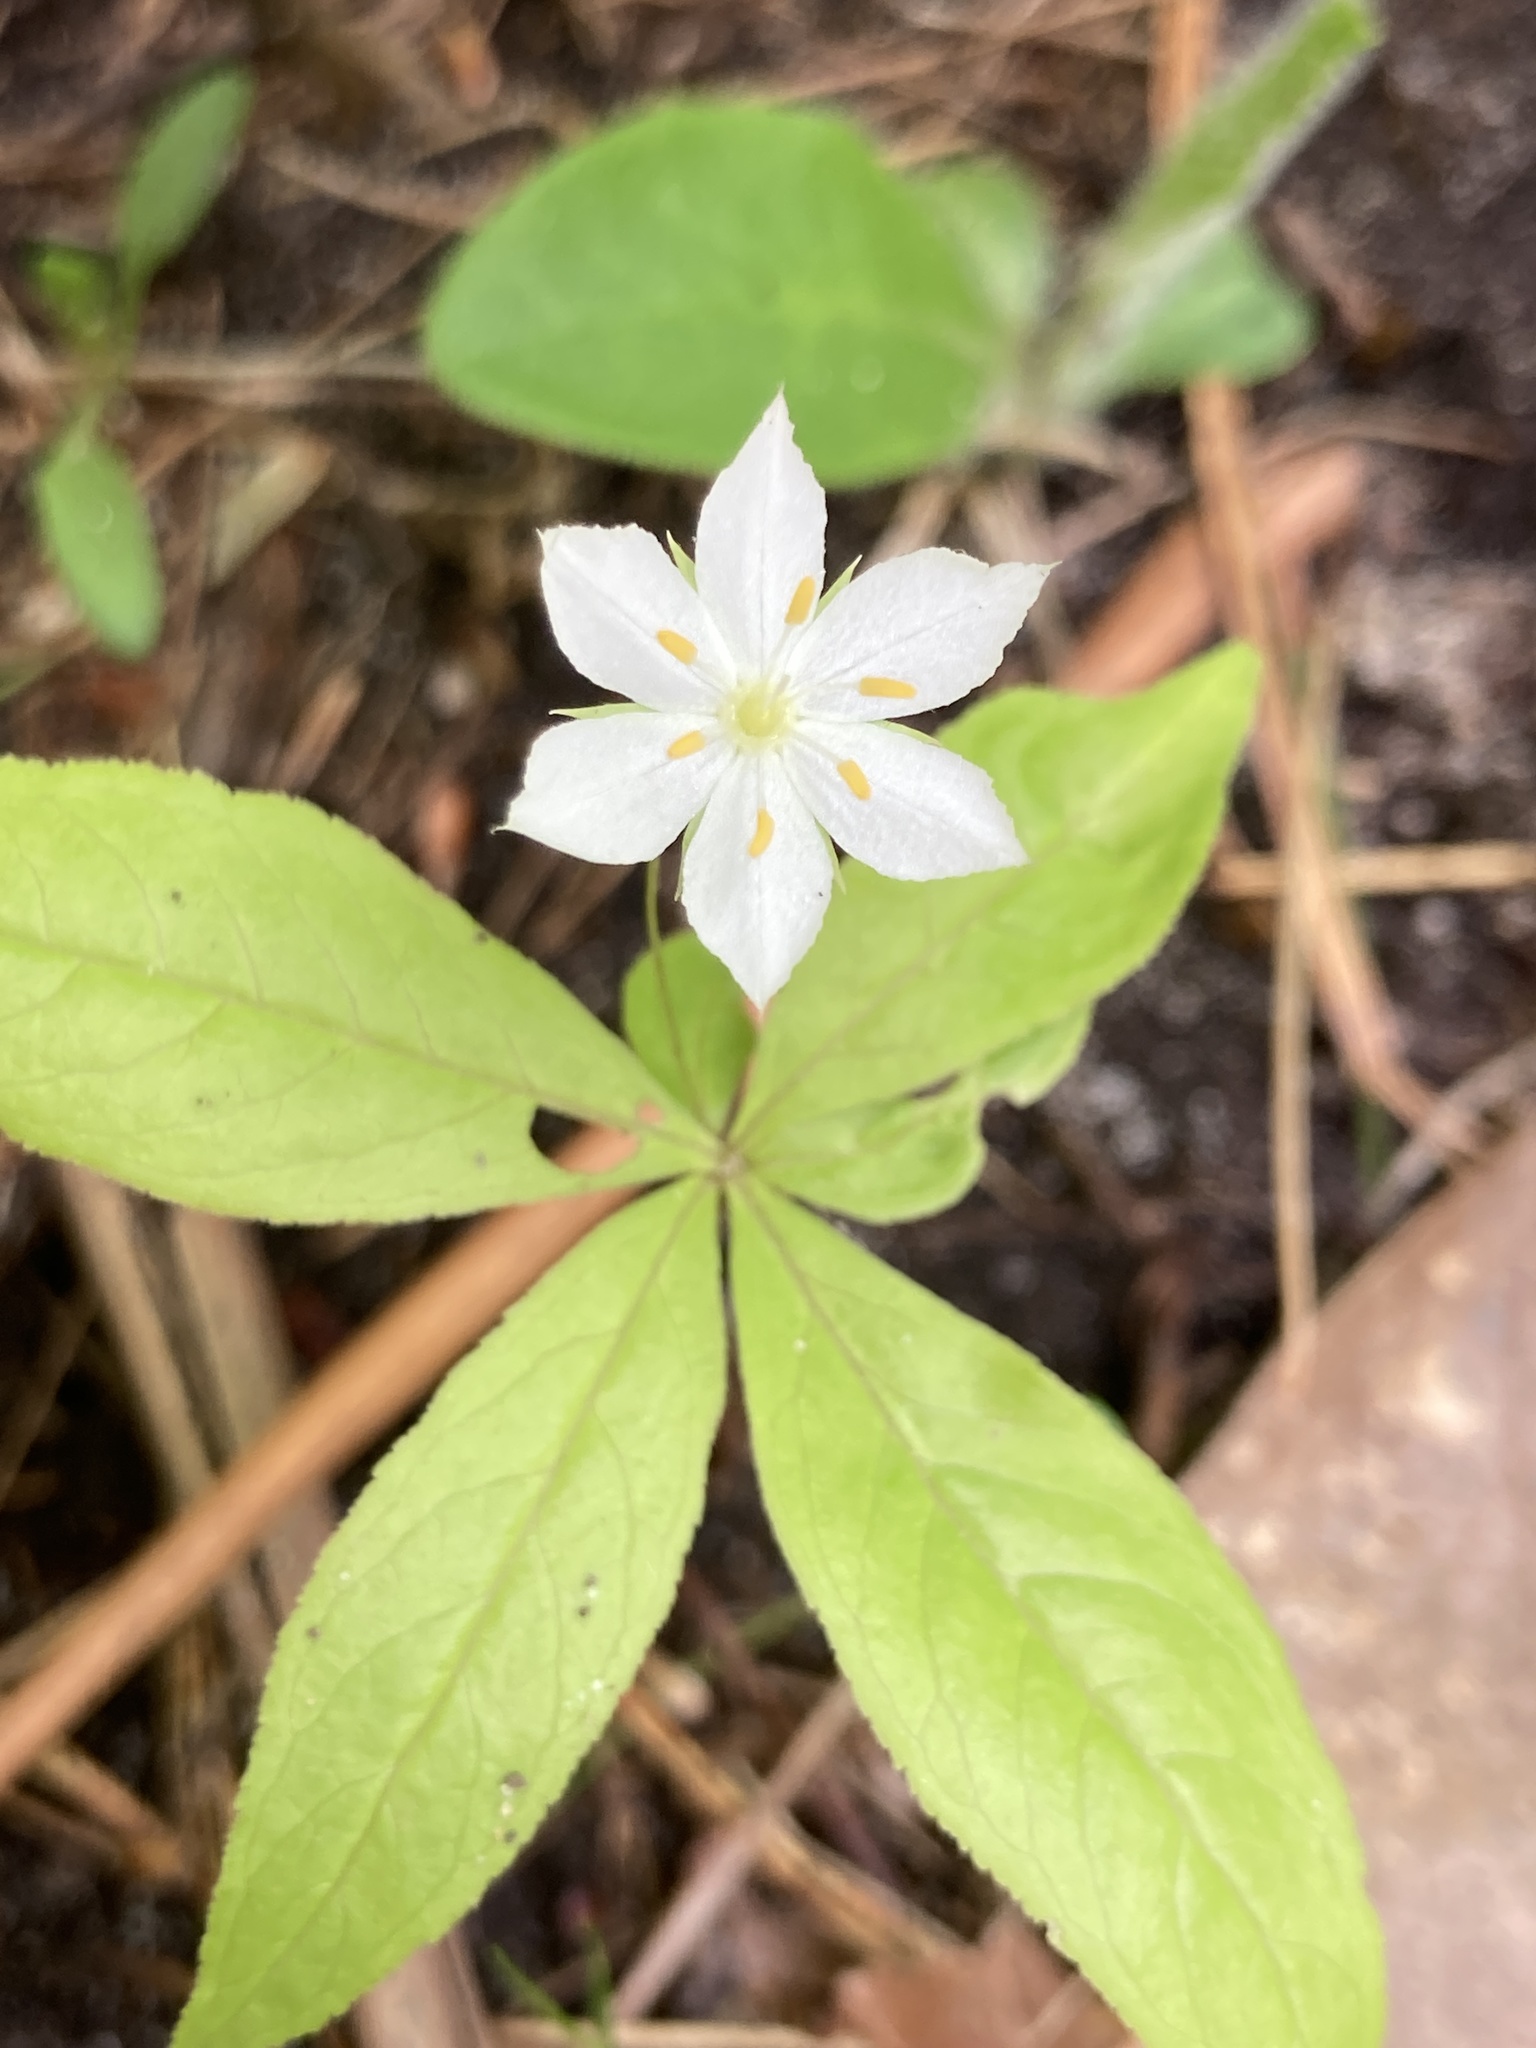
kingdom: Plantae
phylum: Tracheophyta
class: Magnoliopsida
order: Ericales
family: Primulaceae
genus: Lysimachia
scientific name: Lysimachia borealis
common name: American starflower
